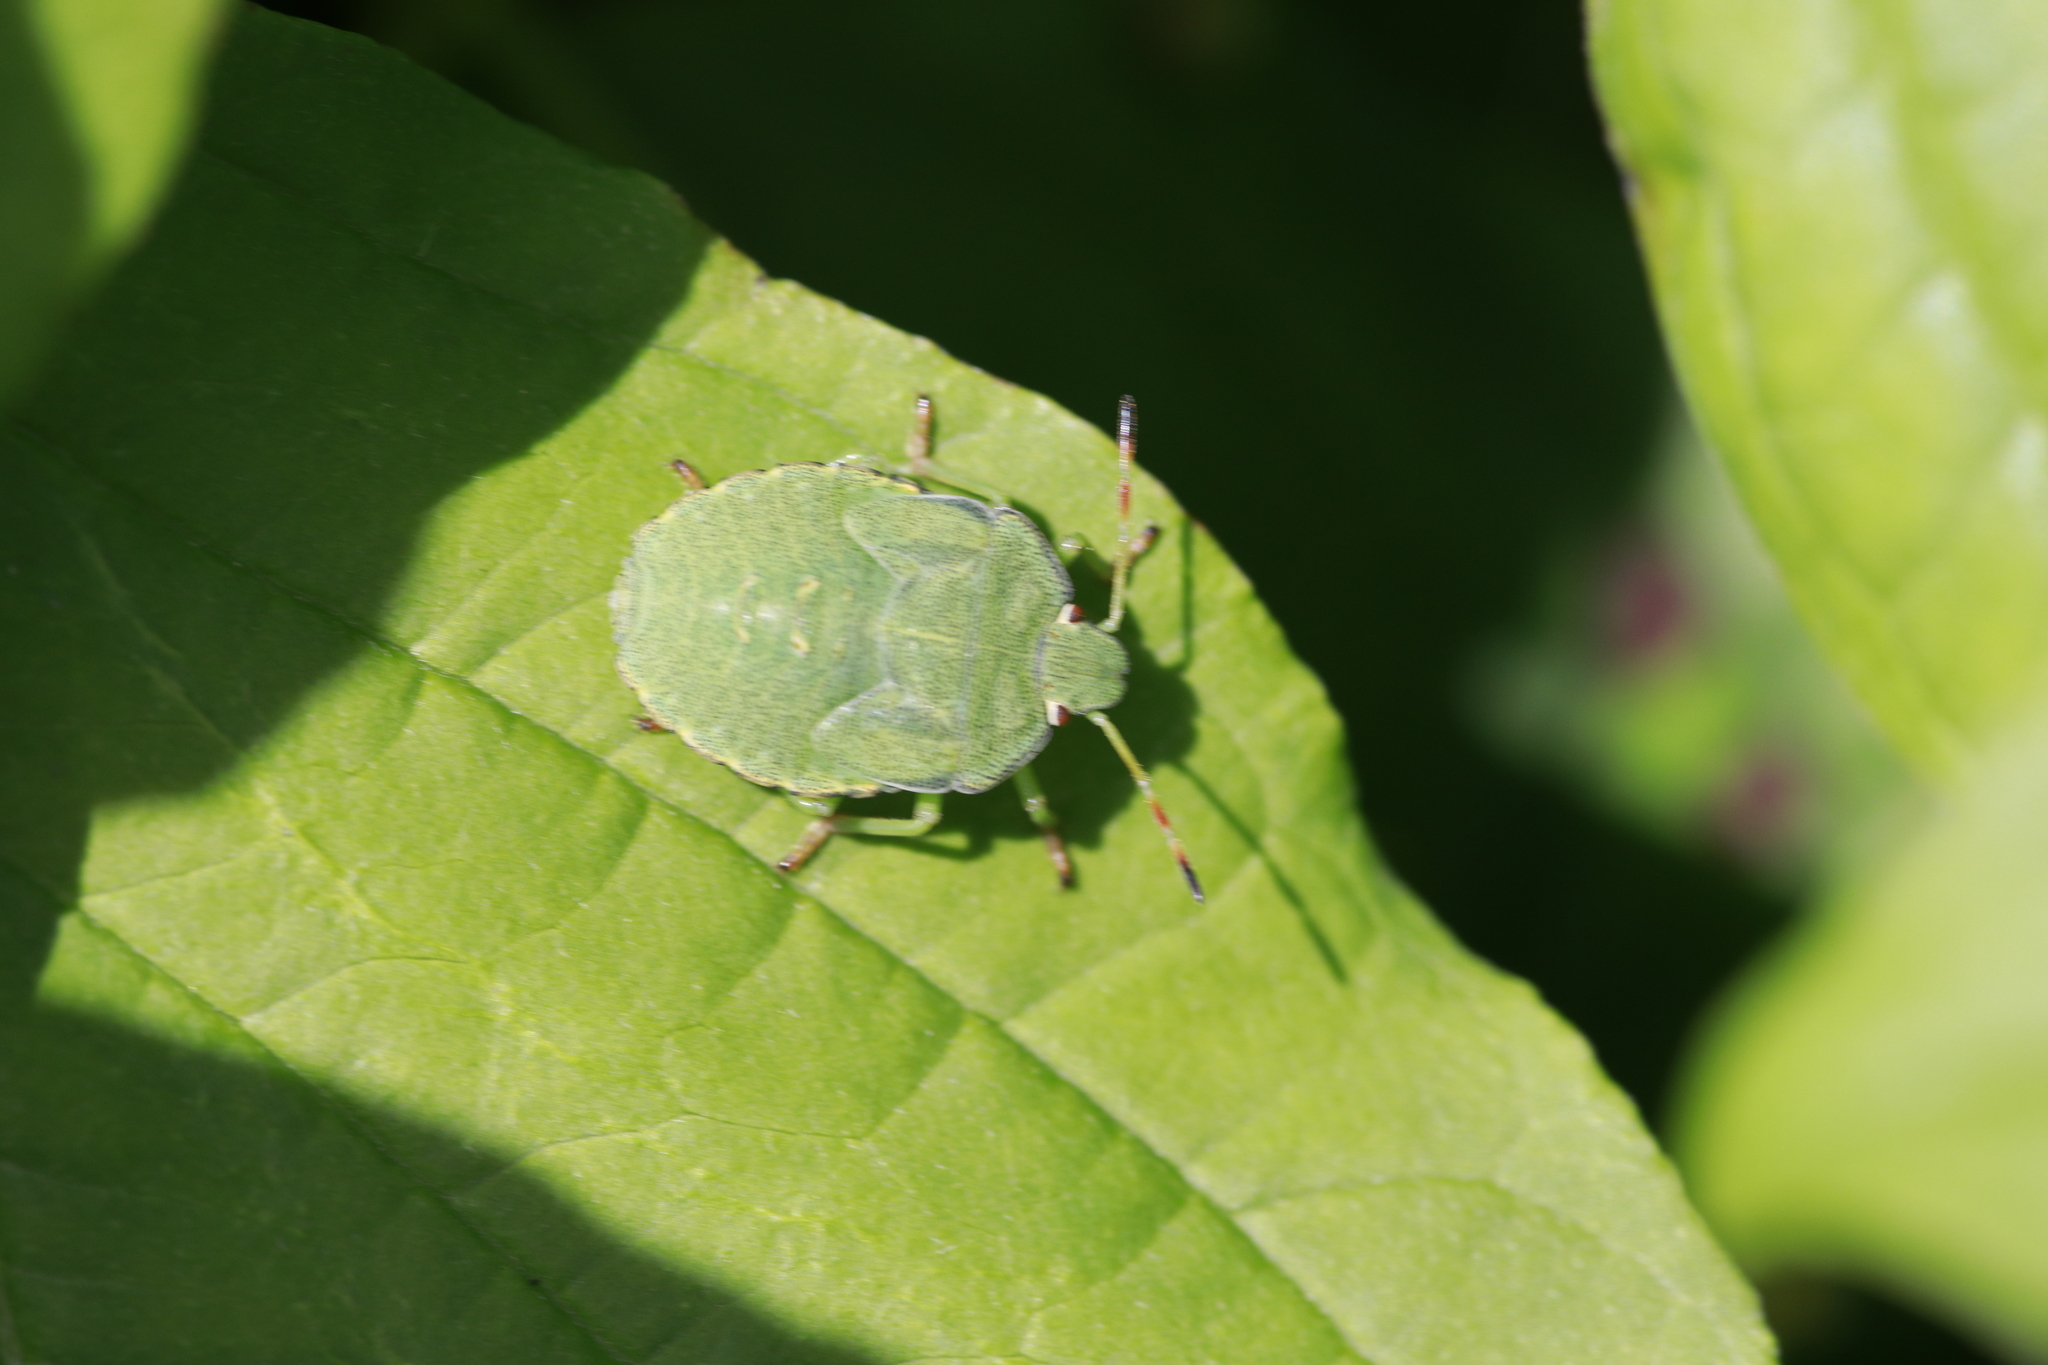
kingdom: Animalia
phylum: Arthropoda
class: Insecta
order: Hemiptera
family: Pentatomidae
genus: Palomena
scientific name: Palomena prasina
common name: Green shieldbug
